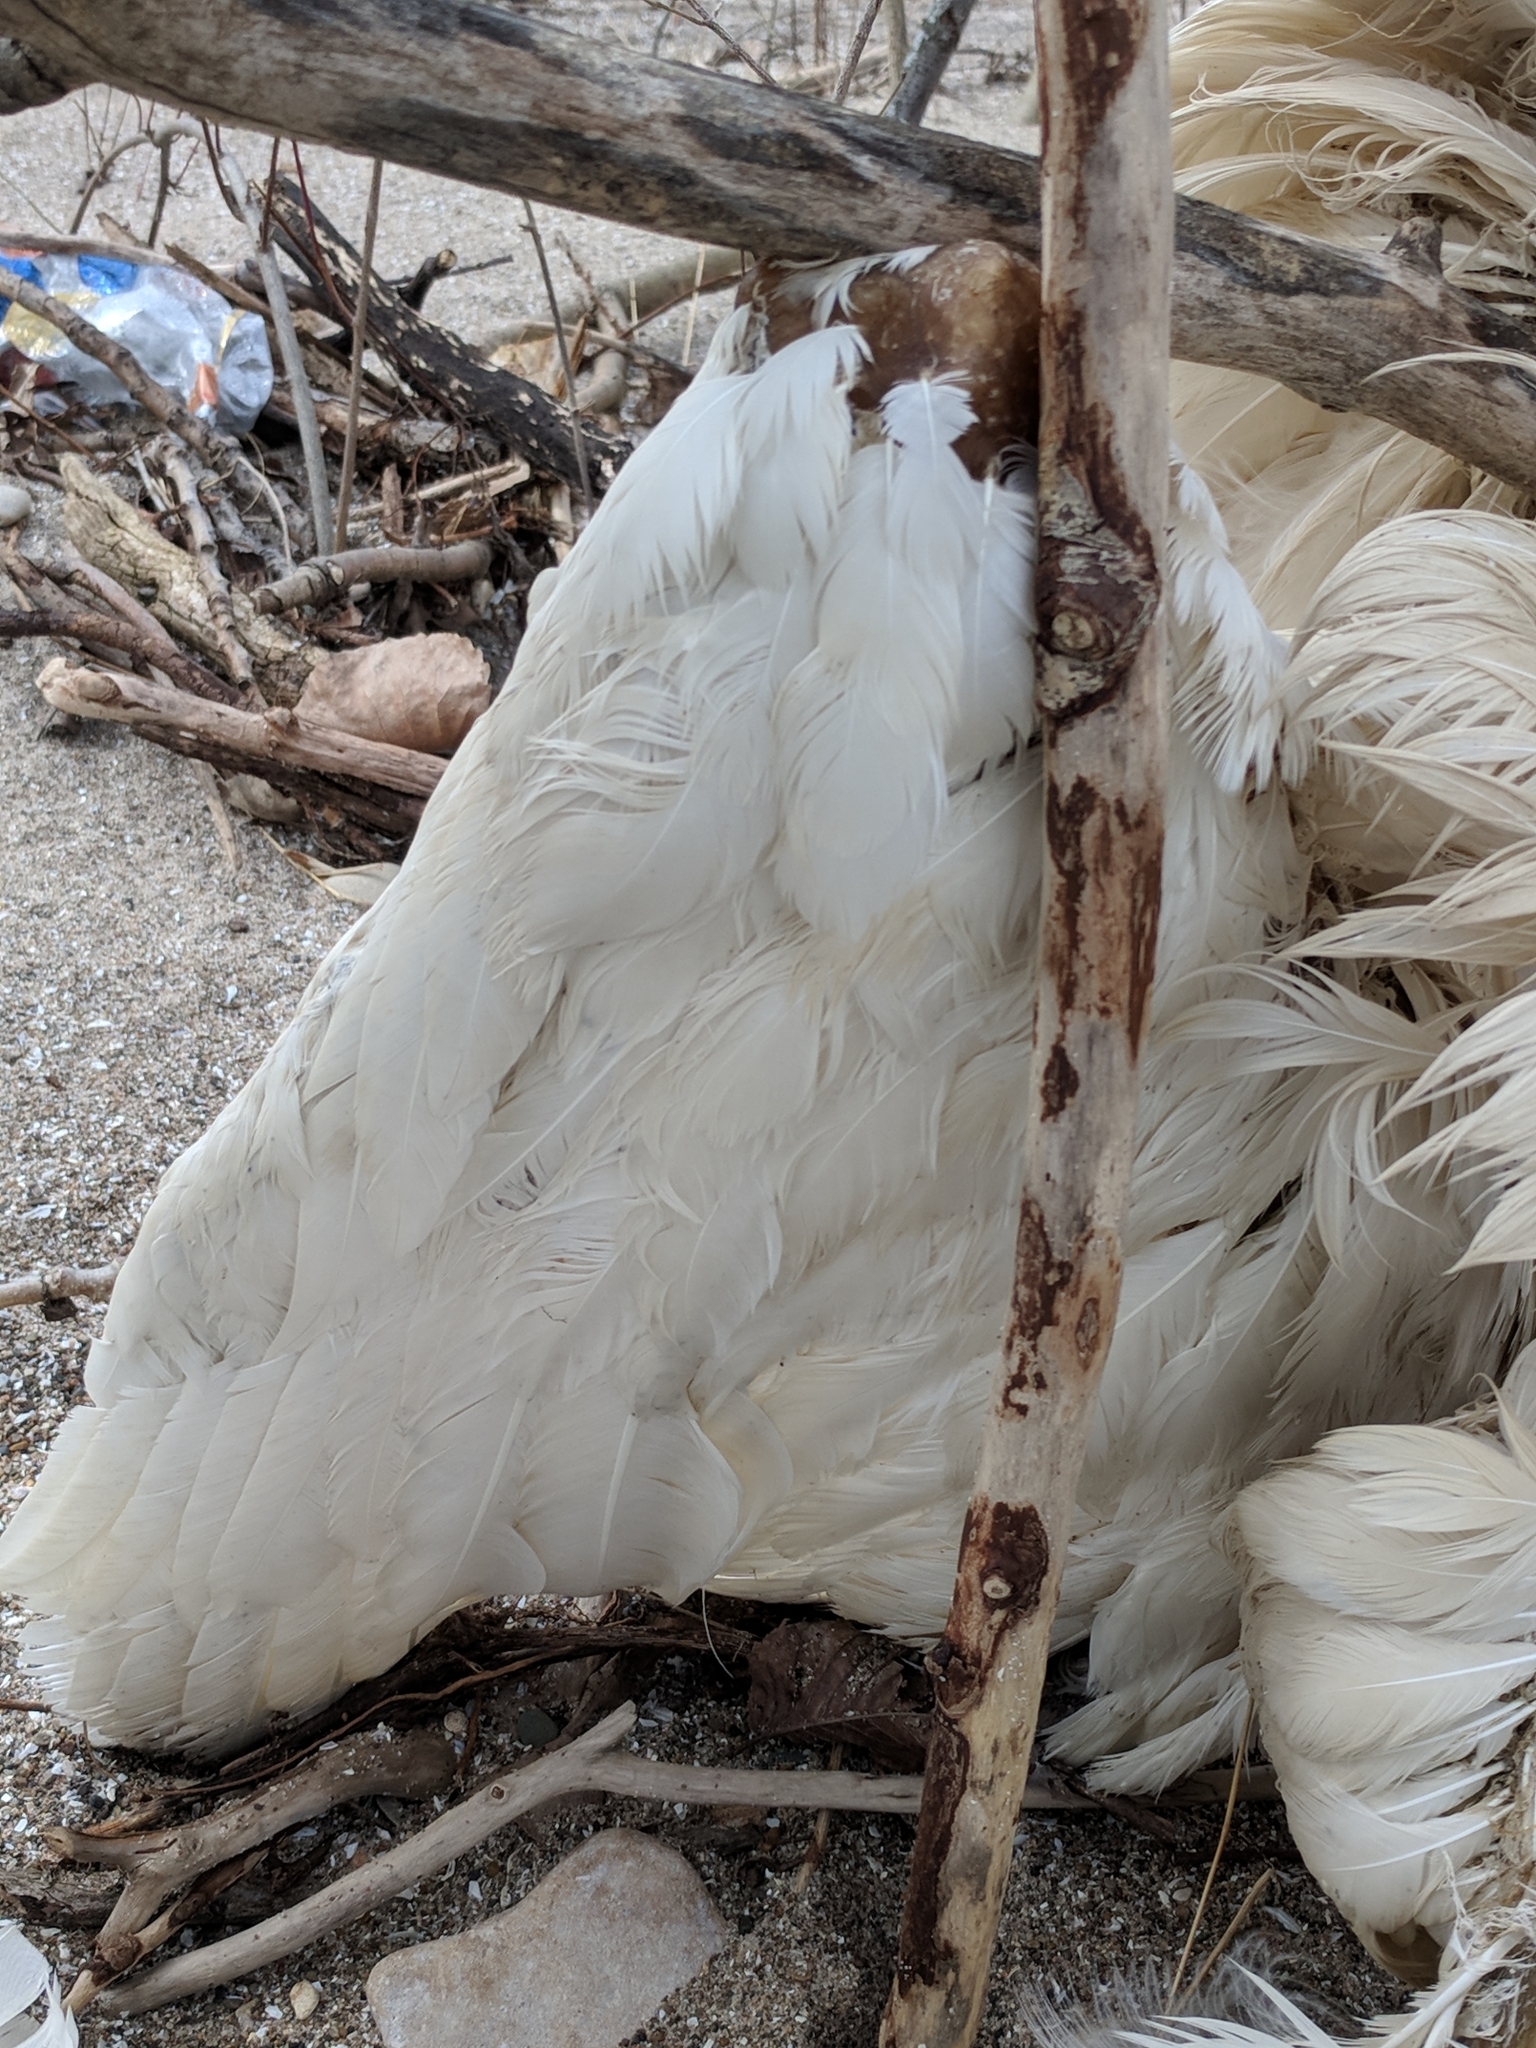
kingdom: Animalia
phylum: Chordata
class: Aves
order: Anseriformes
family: Anatidae
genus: Cygnus
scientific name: Cygnus olor
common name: Mute swan
